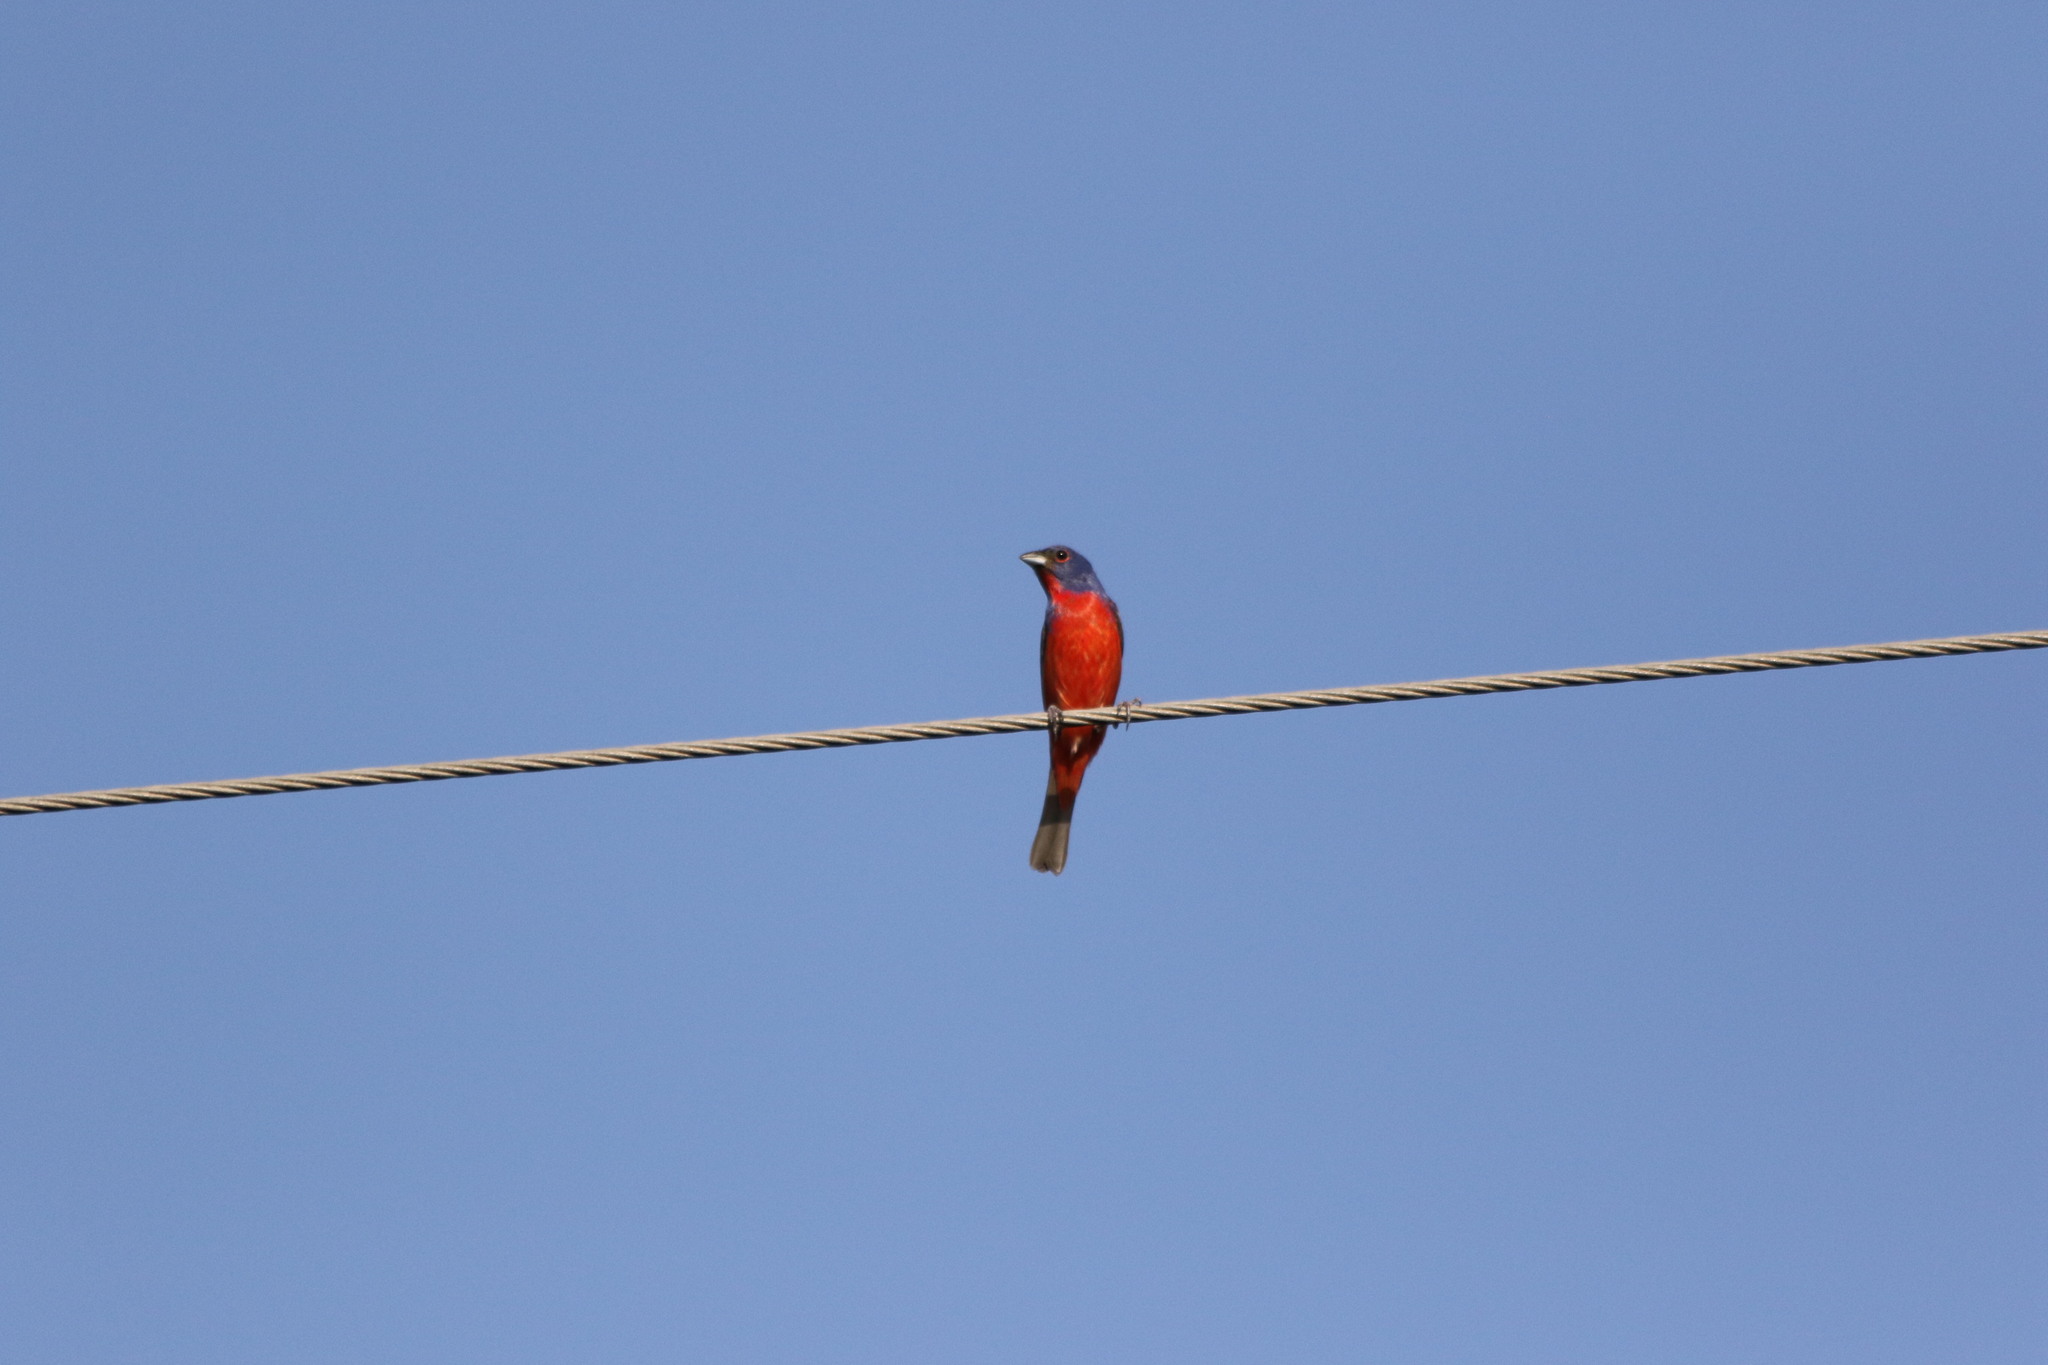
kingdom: Animalia
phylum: Chordata
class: Aves
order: Passeriformes
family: Cardinalidae
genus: Passerina
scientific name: Passerina ciris
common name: Painted bunting
